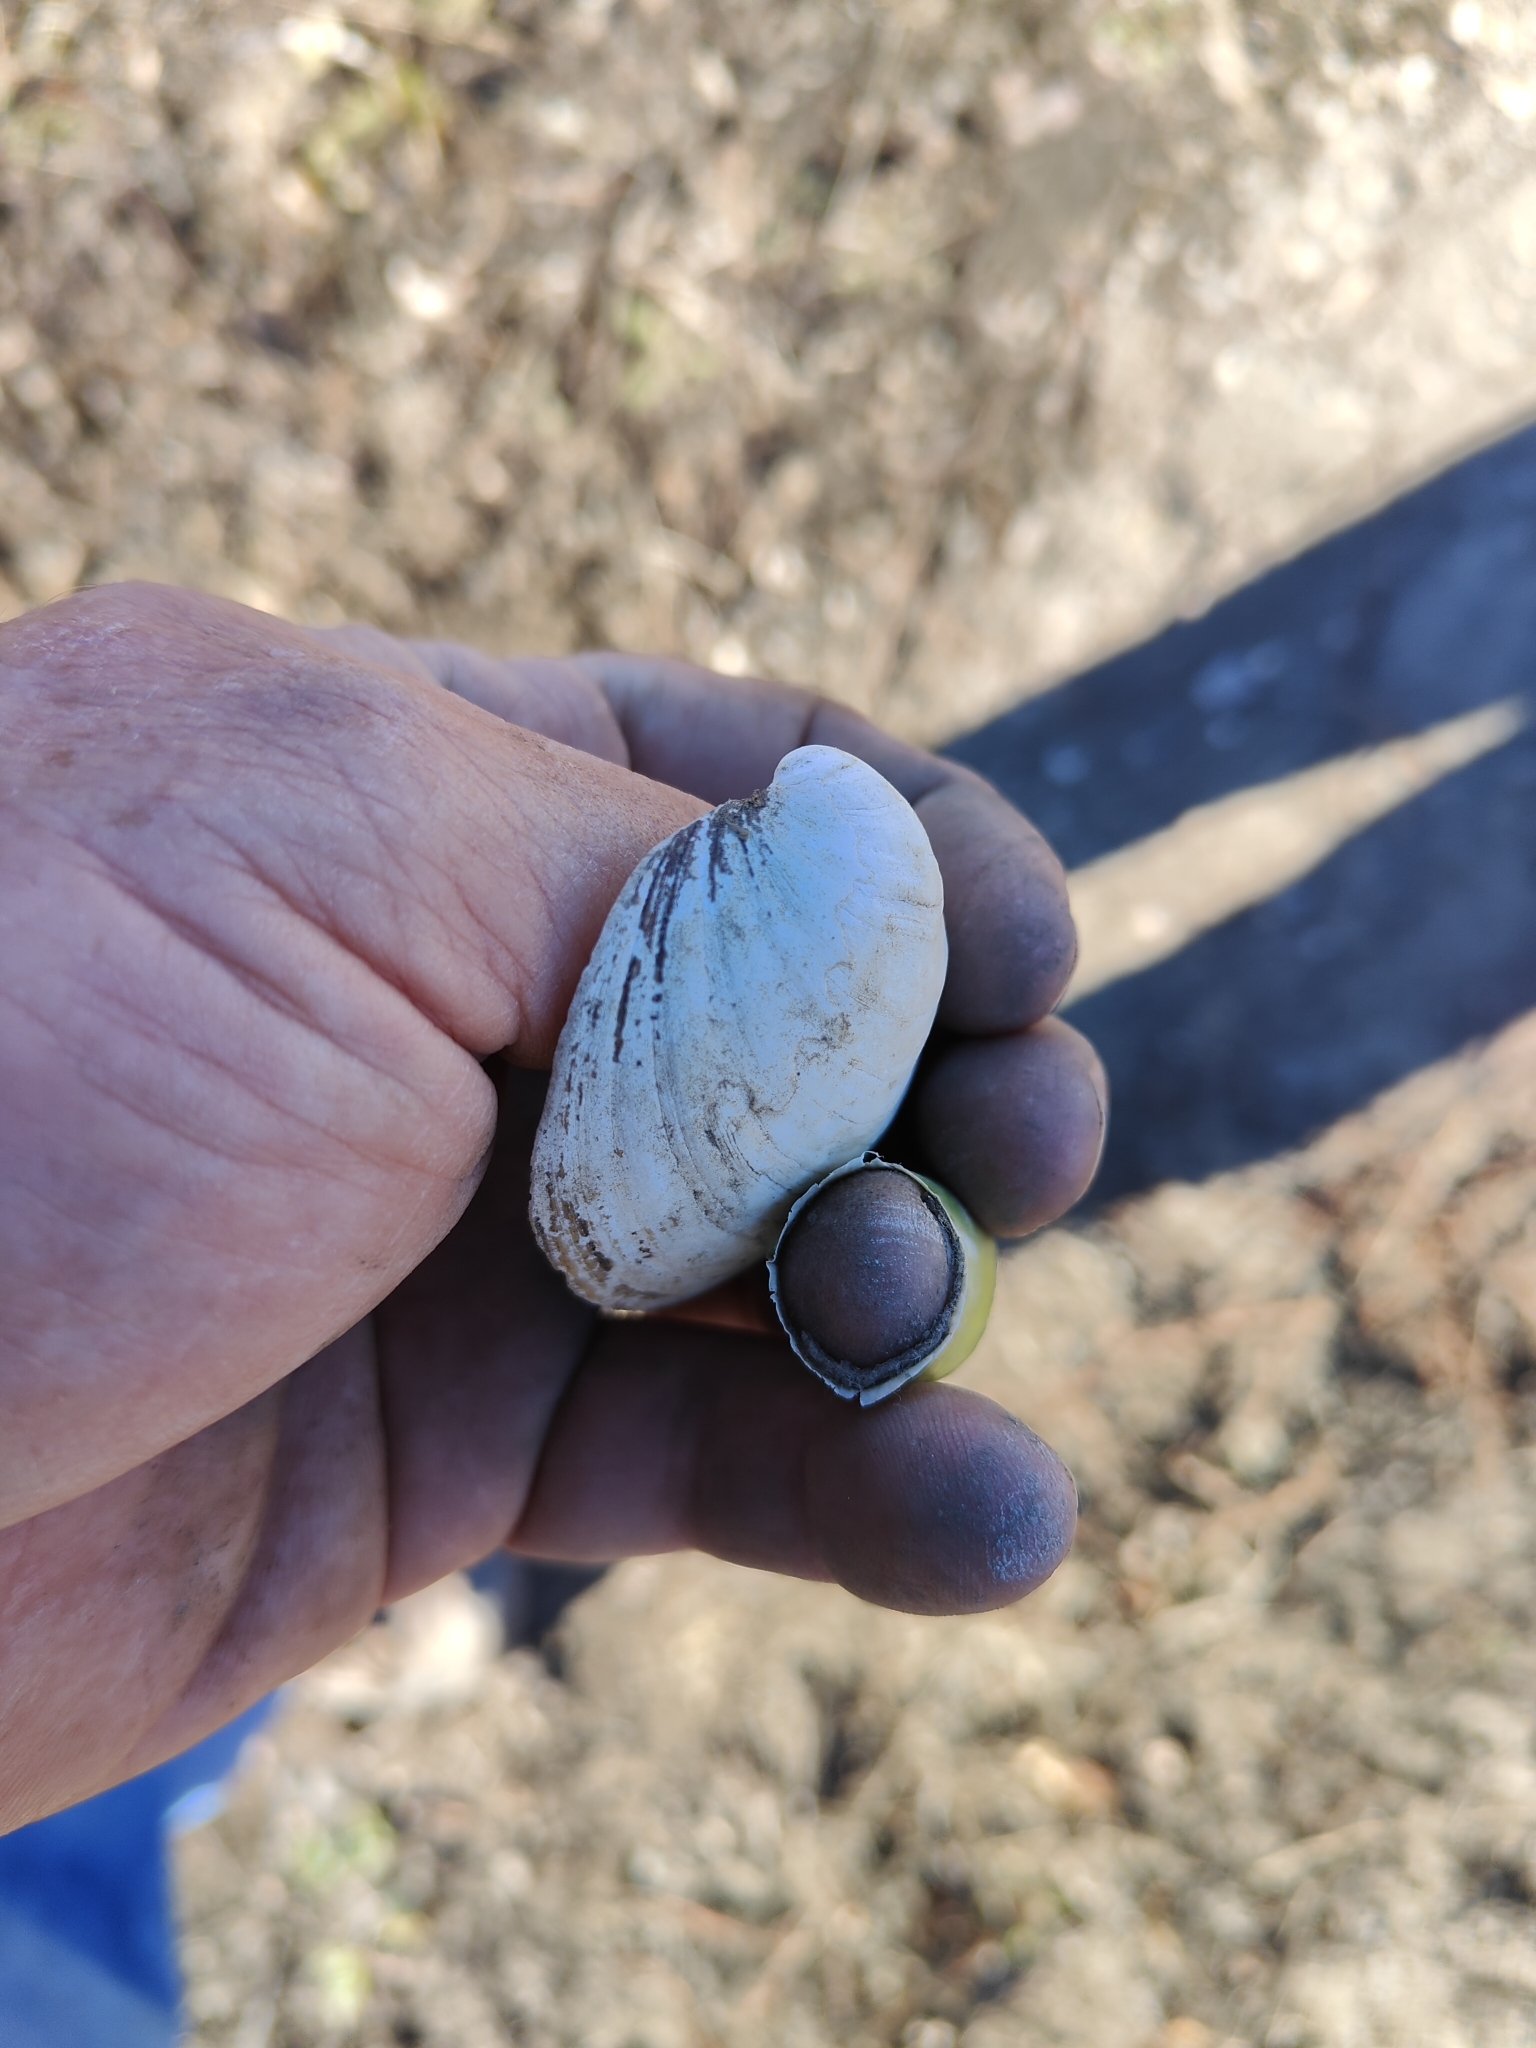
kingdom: Animalia
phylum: Mollusca
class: Bivalvia
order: Unionida
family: Unionidae
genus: Obovaria
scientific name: Obovaria olivaria
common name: Hickorynut
